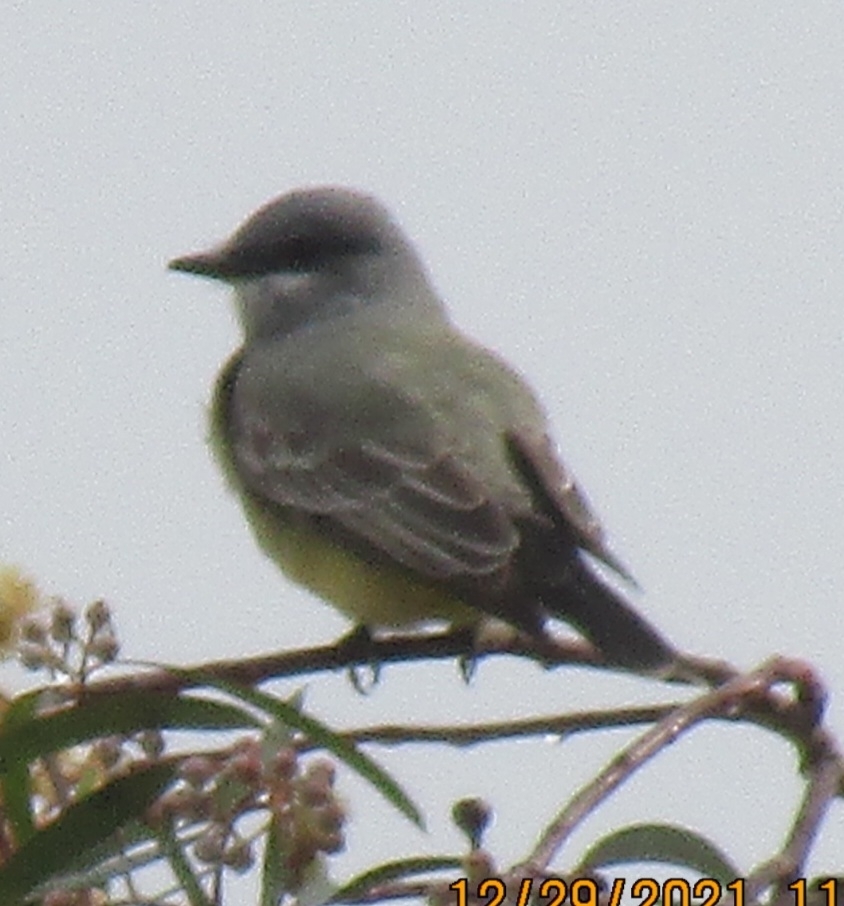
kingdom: Animalia
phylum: Chordata
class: Aves
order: Passeriformes
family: Tyrannidae
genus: Tyrannus
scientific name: Tyrannus vociferans
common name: Cassin's kingbird
